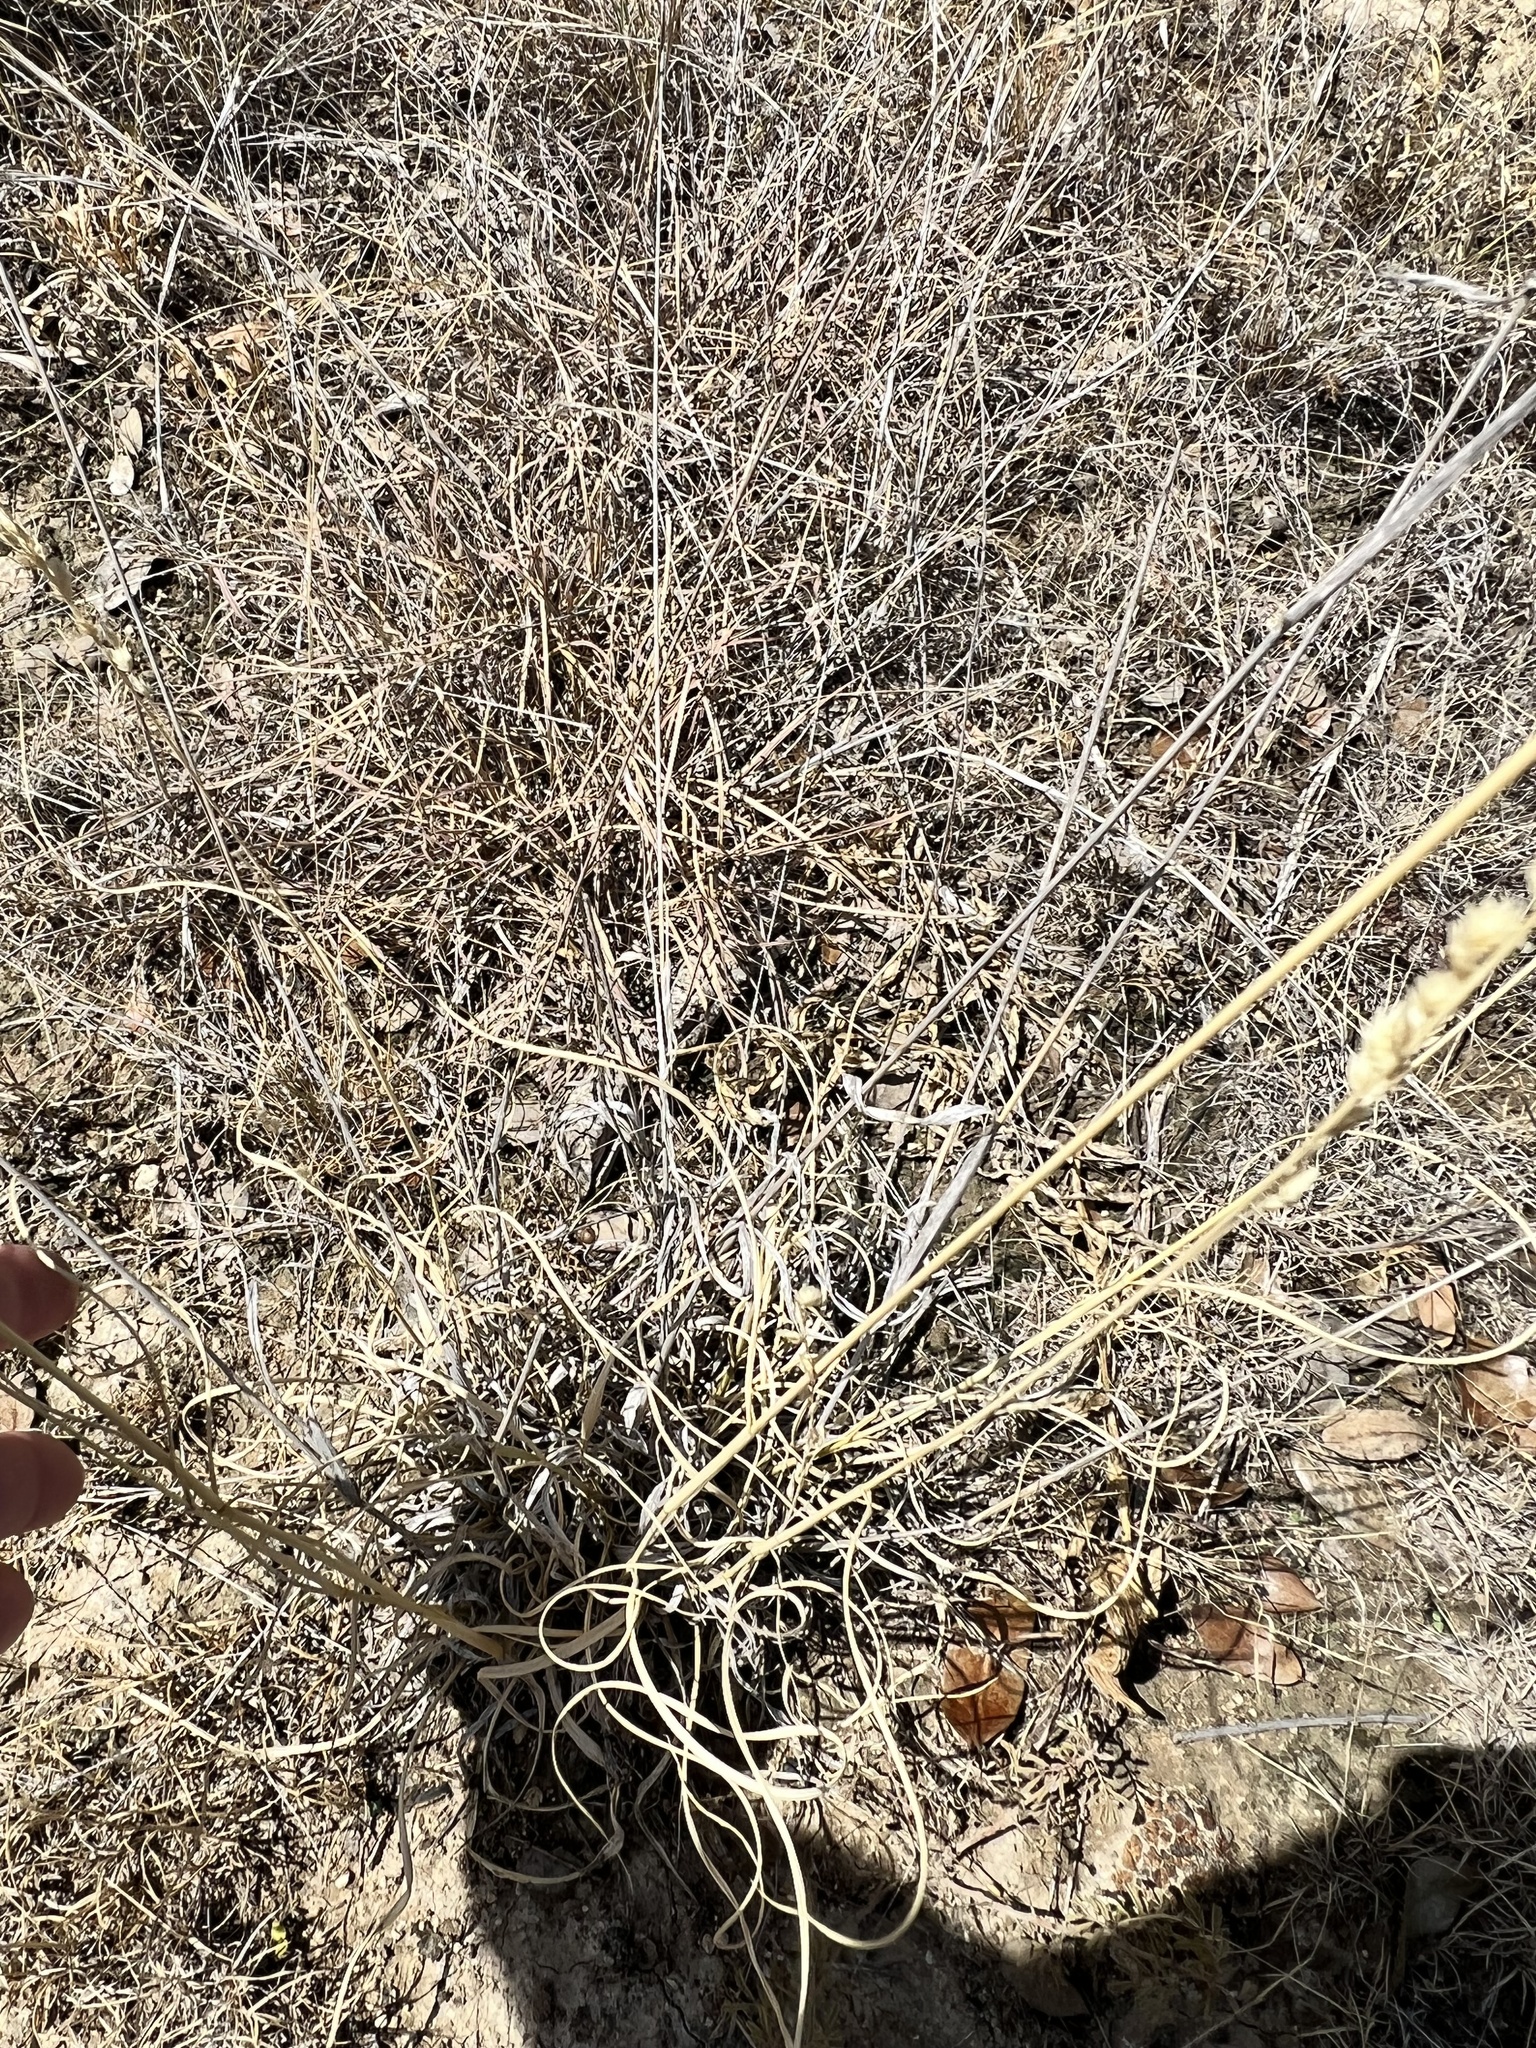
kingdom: Plantae
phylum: Tracheophyta
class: Liliopsida
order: Poales
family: Poaceae
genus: Eragrostis
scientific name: Eragrostis superba
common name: Wilman lovegrass
